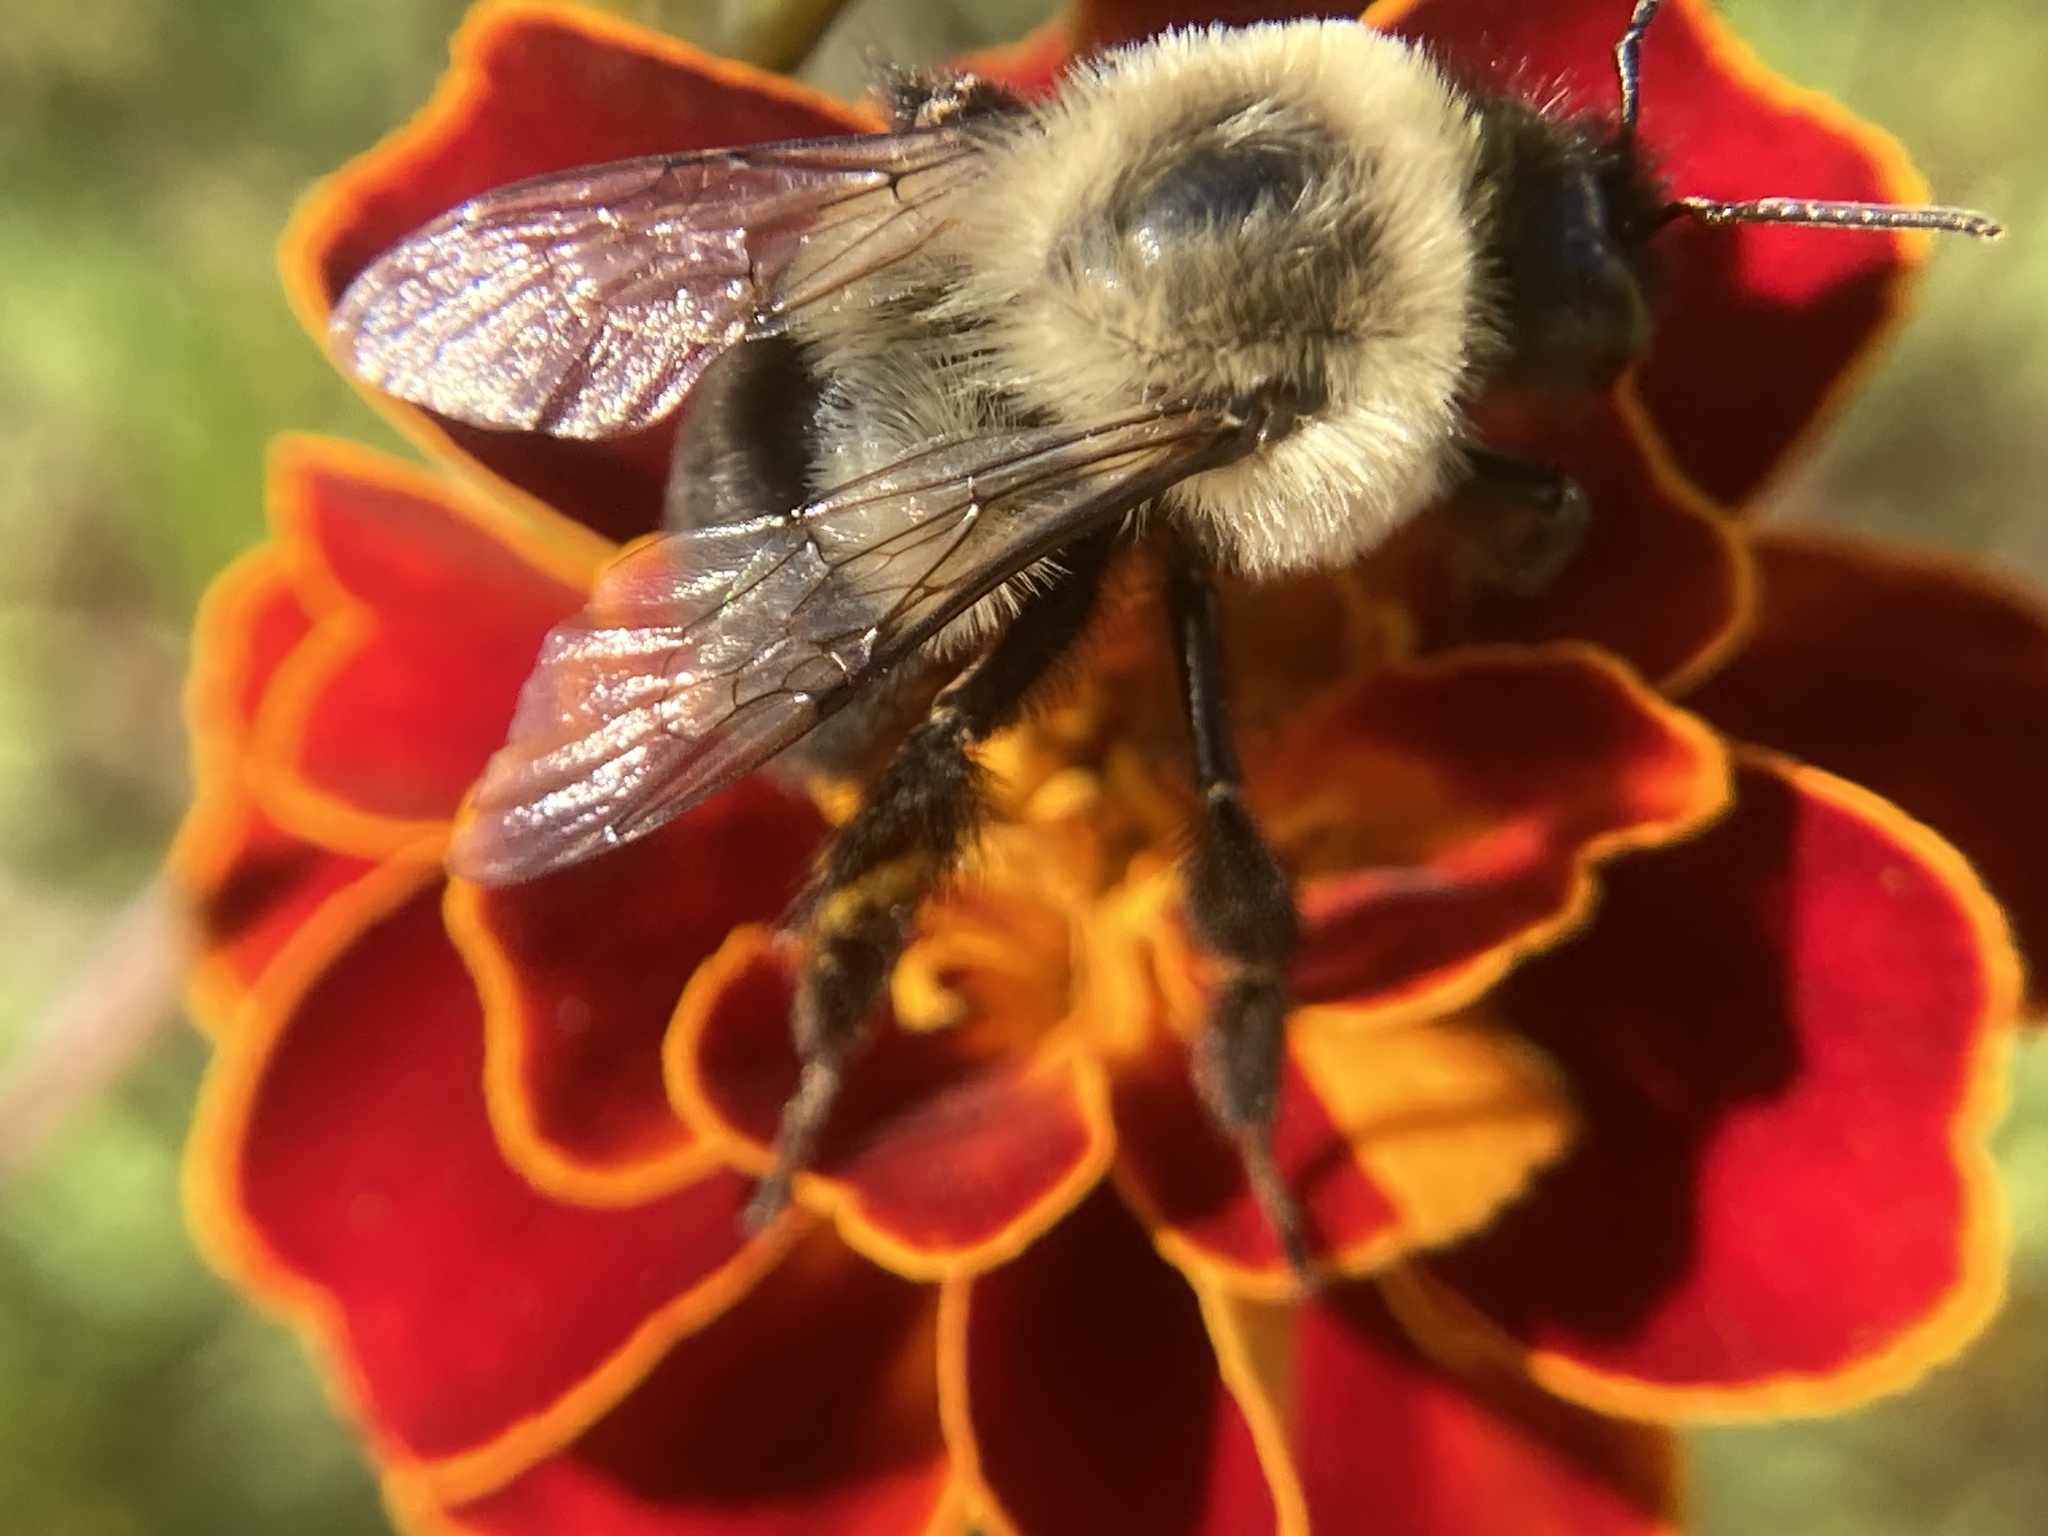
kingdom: Animalia
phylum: Arthropoda
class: Insecta
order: Hymenoptera
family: Apidae
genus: Bombus
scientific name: Bombus impatiens
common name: Common eastern bumble bee
